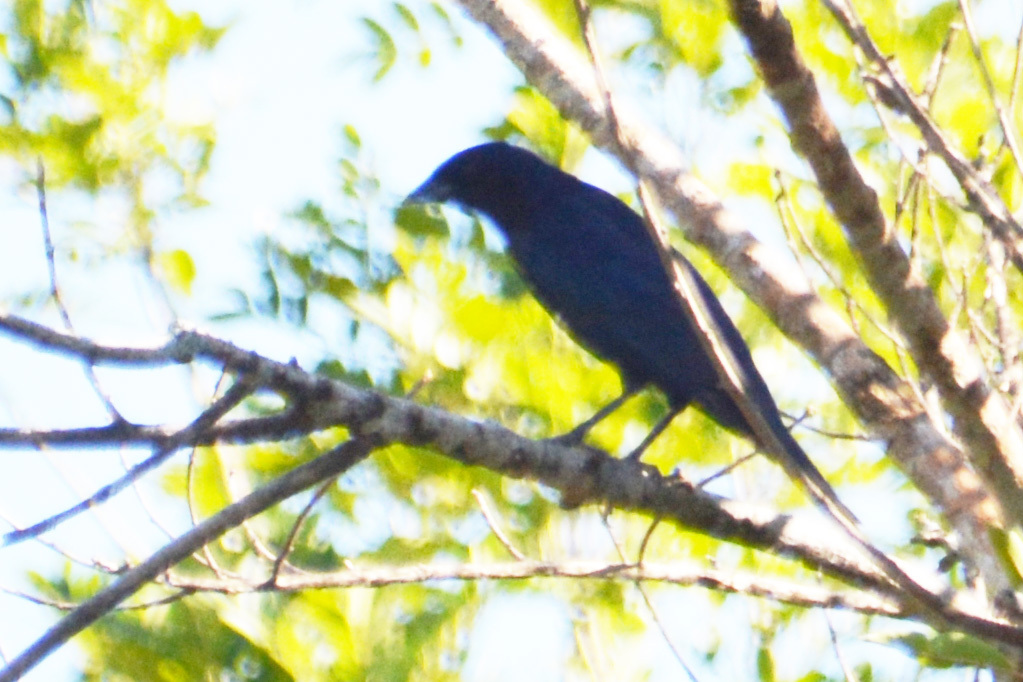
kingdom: Animalia
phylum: Chordata
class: Aves
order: Passeriformes
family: Icteridae
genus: Molothrus
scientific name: Molothrus bonariensis
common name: Shiny cowbird
